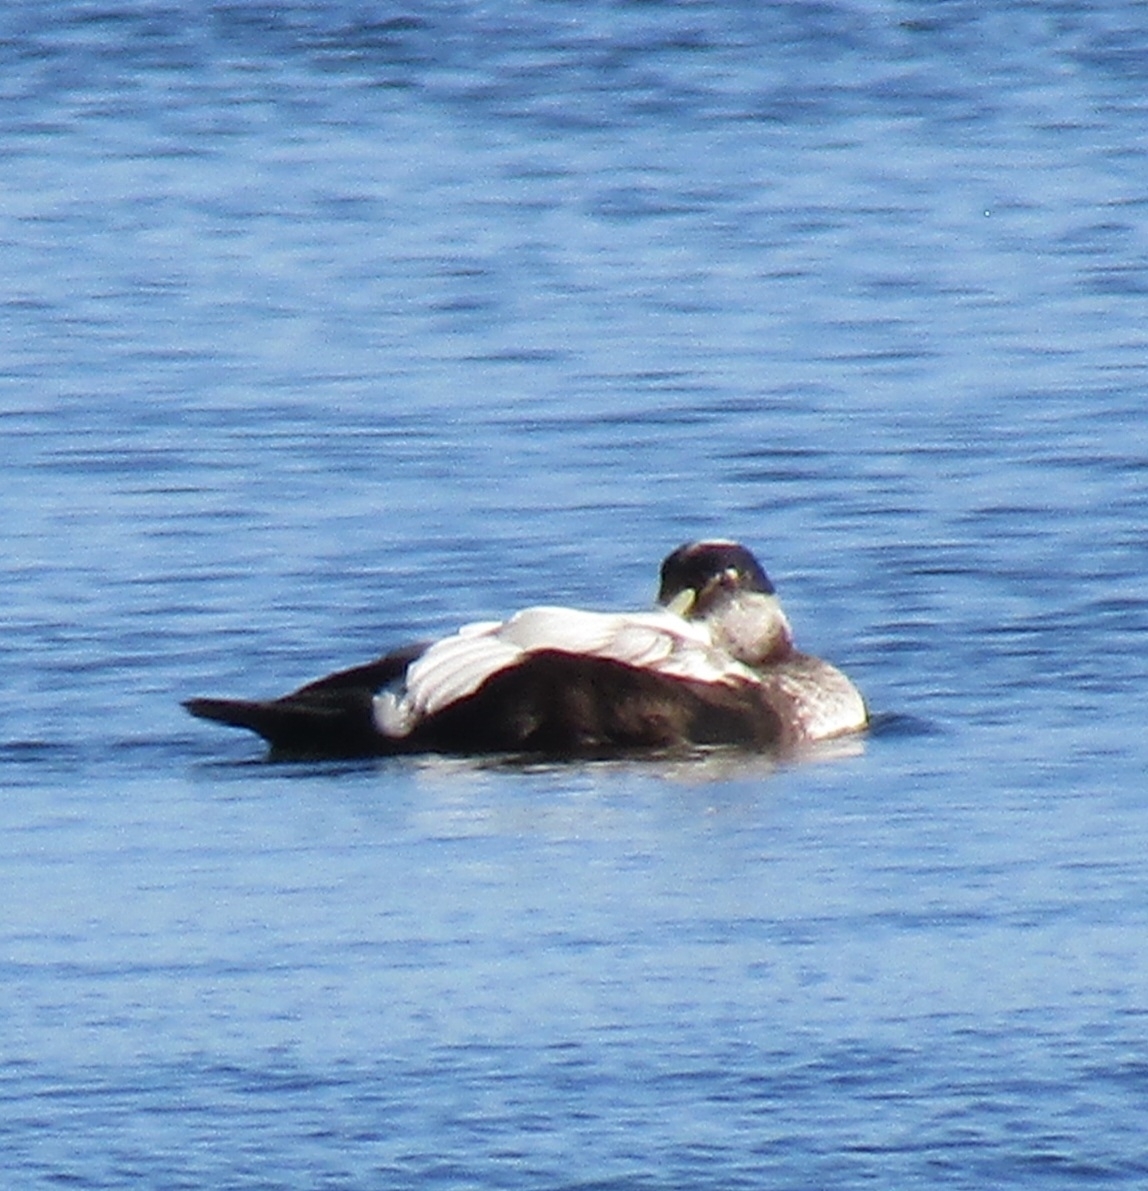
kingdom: Animalia
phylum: Chordata
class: Aves
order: Anseriformes
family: Anatidae
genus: Somateria
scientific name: Somateria mollissima
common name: Common eider
